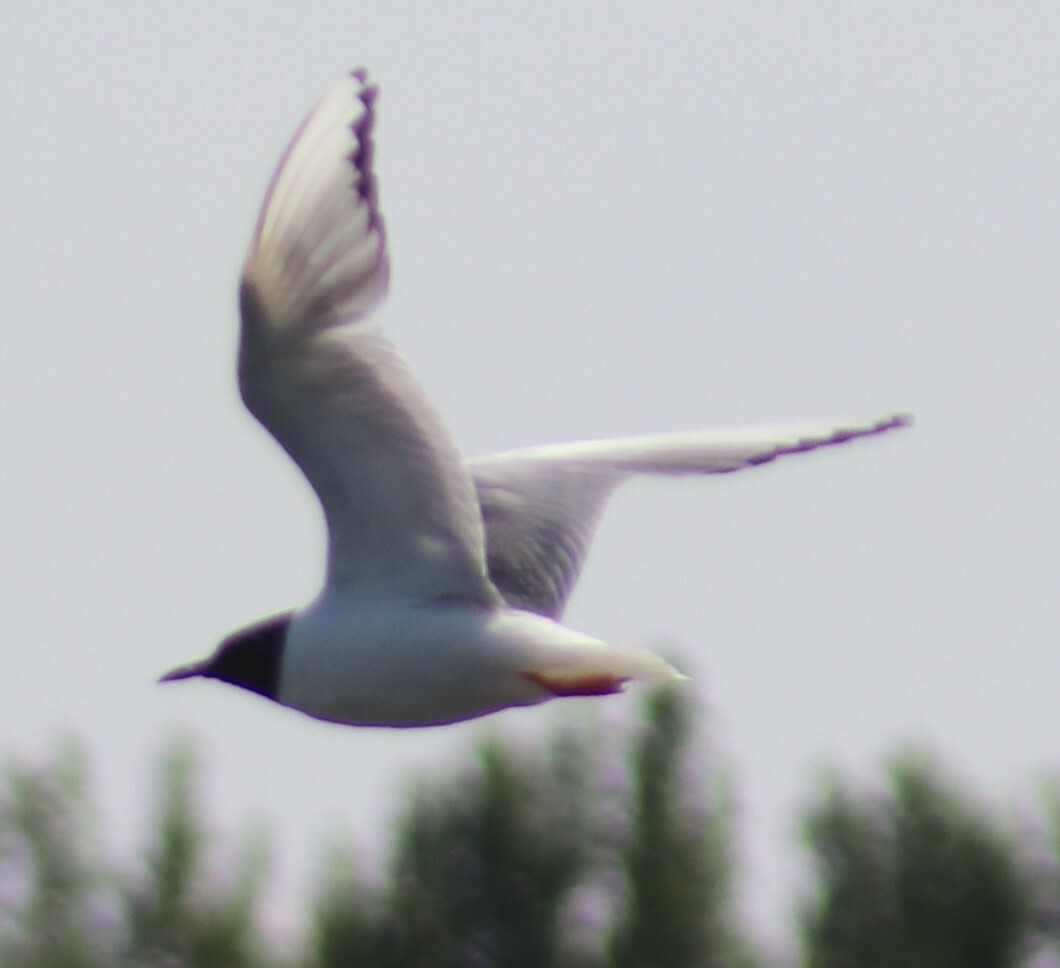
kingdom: Animalia
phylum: Chordata
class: Aves
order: Charadriiformes
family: Laridae
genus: Chroicocephalus
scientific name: Chroicocephalus philadelphia
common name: Bonaparte's gull
